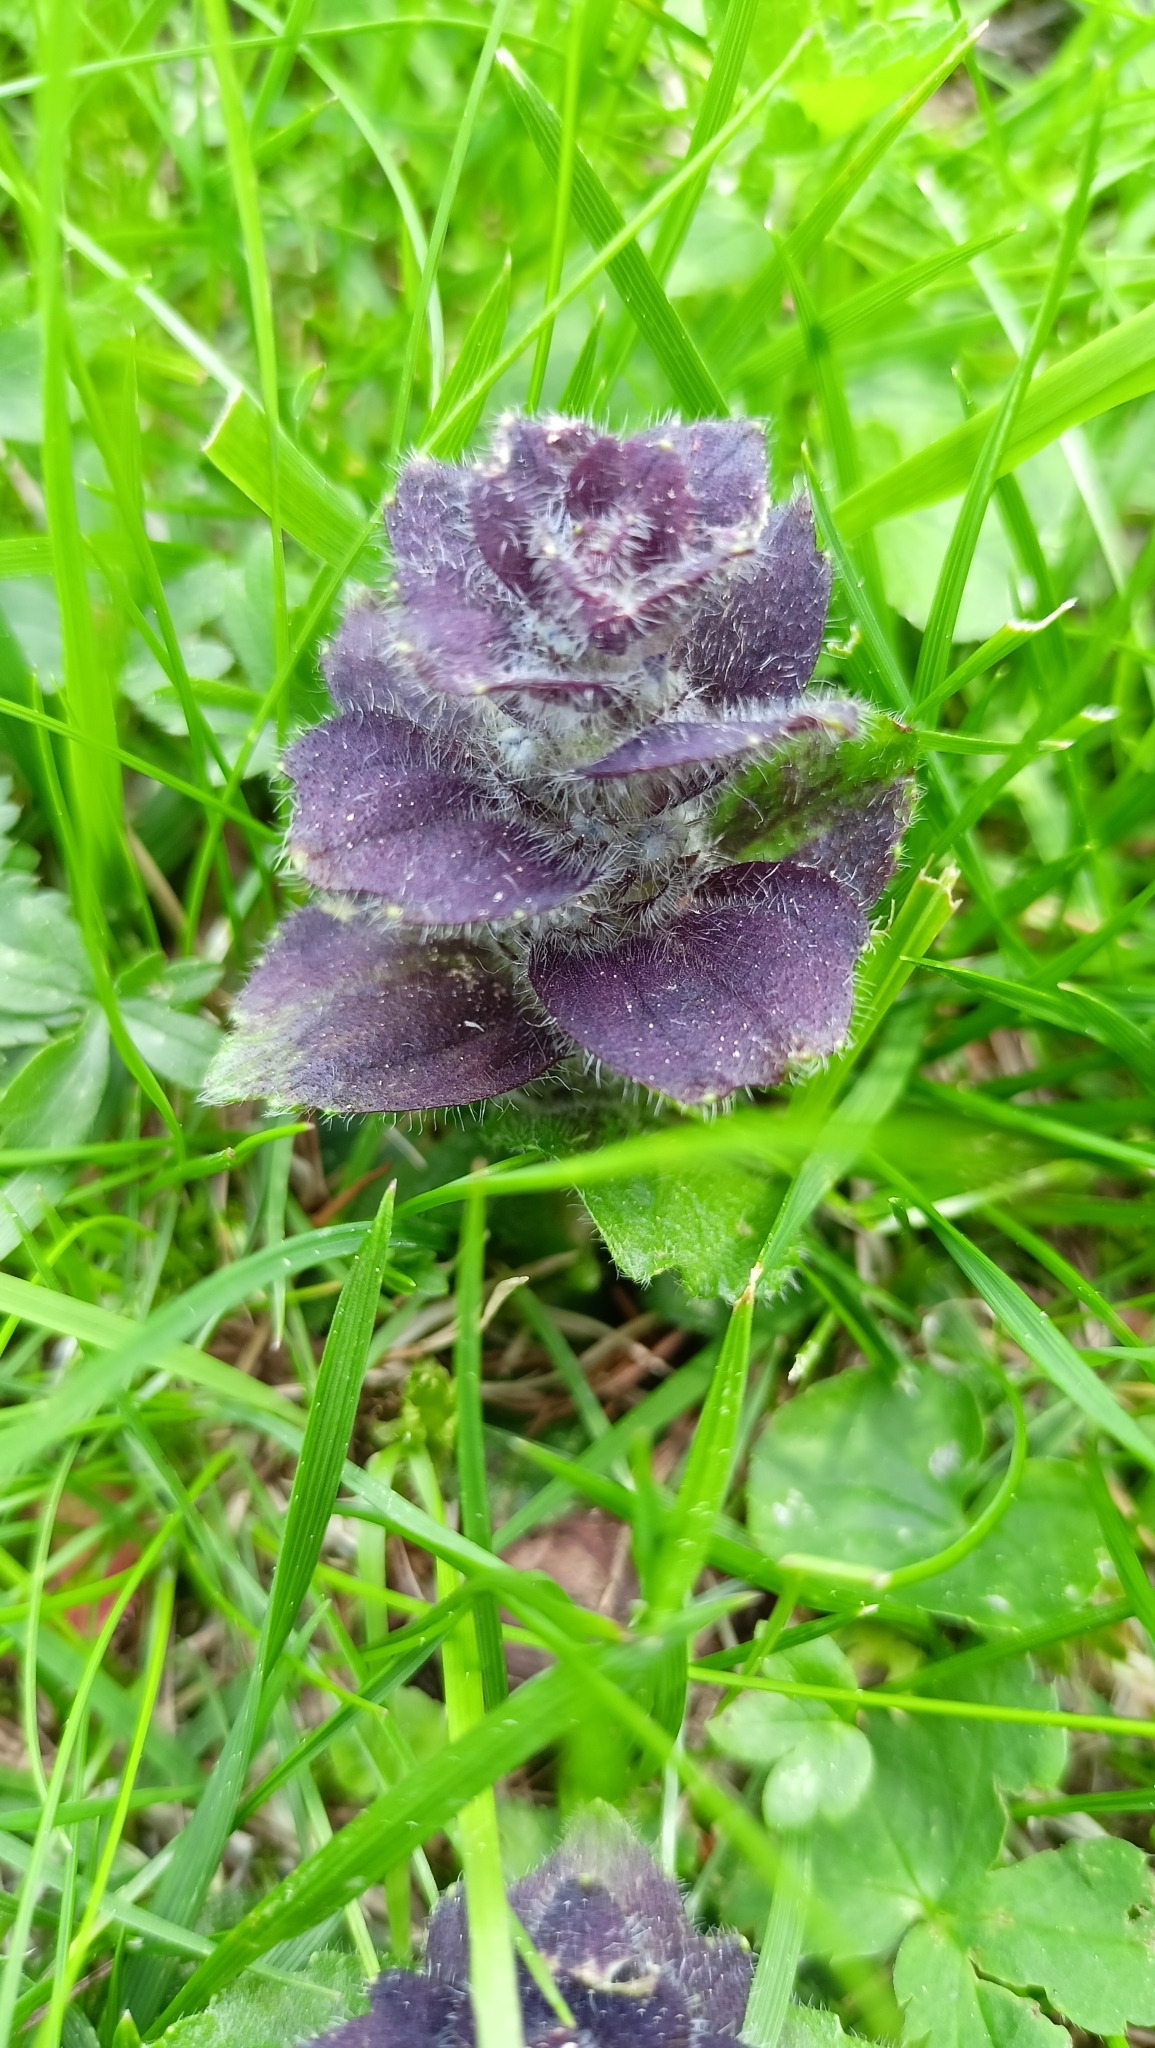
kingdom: Plantae
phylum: Tracheophyta
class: Magnoliopsida
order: Lamiales
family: Lamiaceae
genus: Ajuga
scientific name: Ajuga pyramidalis
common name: Pyramid bugle
